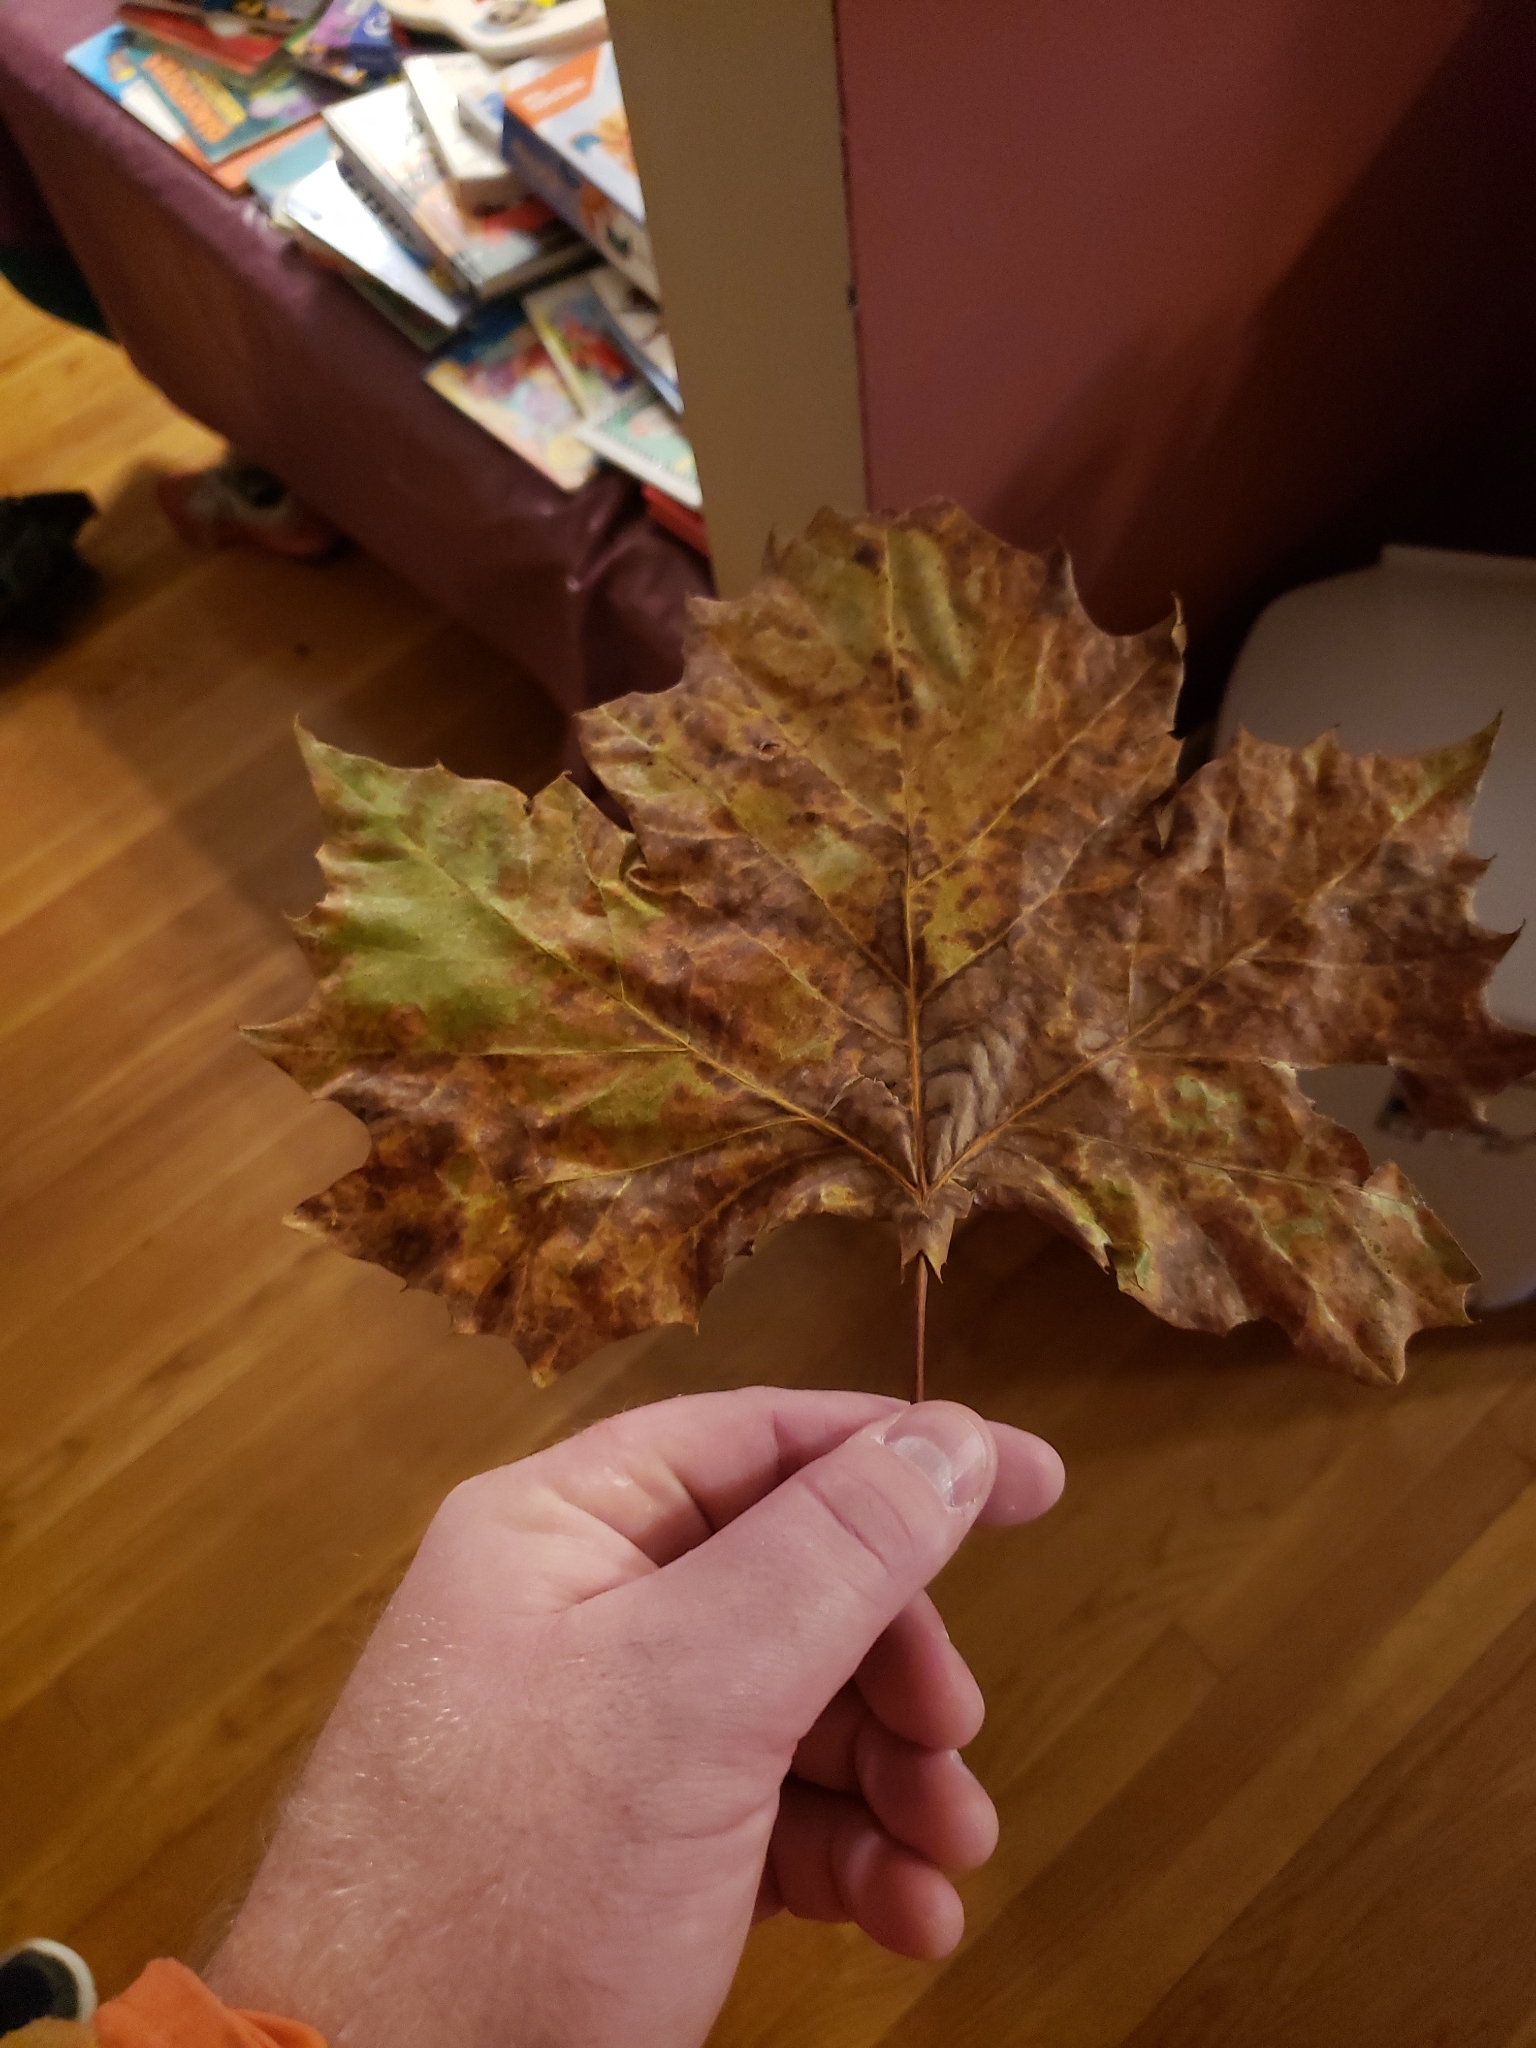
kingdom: Plantae
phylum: Tracheophyta
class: Magnoliopsida
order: Proteales
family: Platanaceae
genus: Platanus
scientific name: Platanus occidentalis
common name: American sycamore
